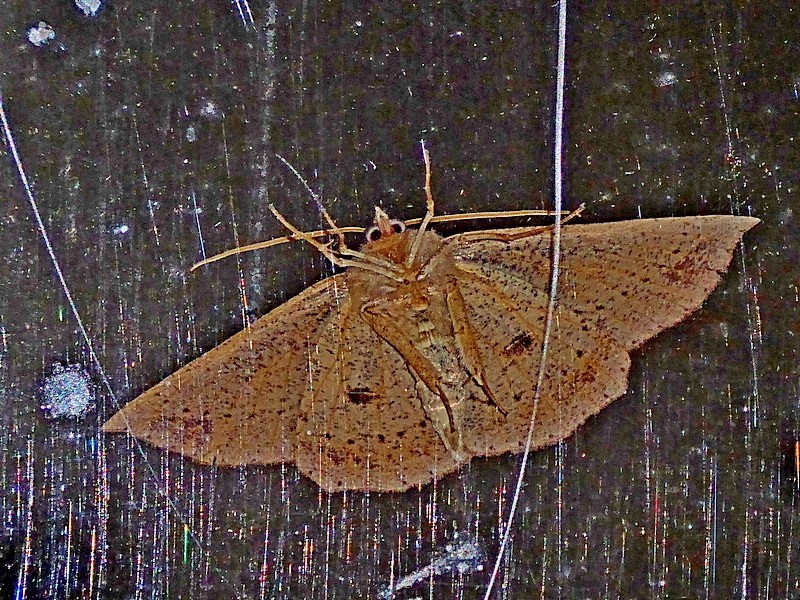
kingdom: Animalia
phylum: Arthropoda
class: Insecta
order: Lepidoptera
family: Geometridae
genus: Idiodes
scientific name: Idiodes apicata
